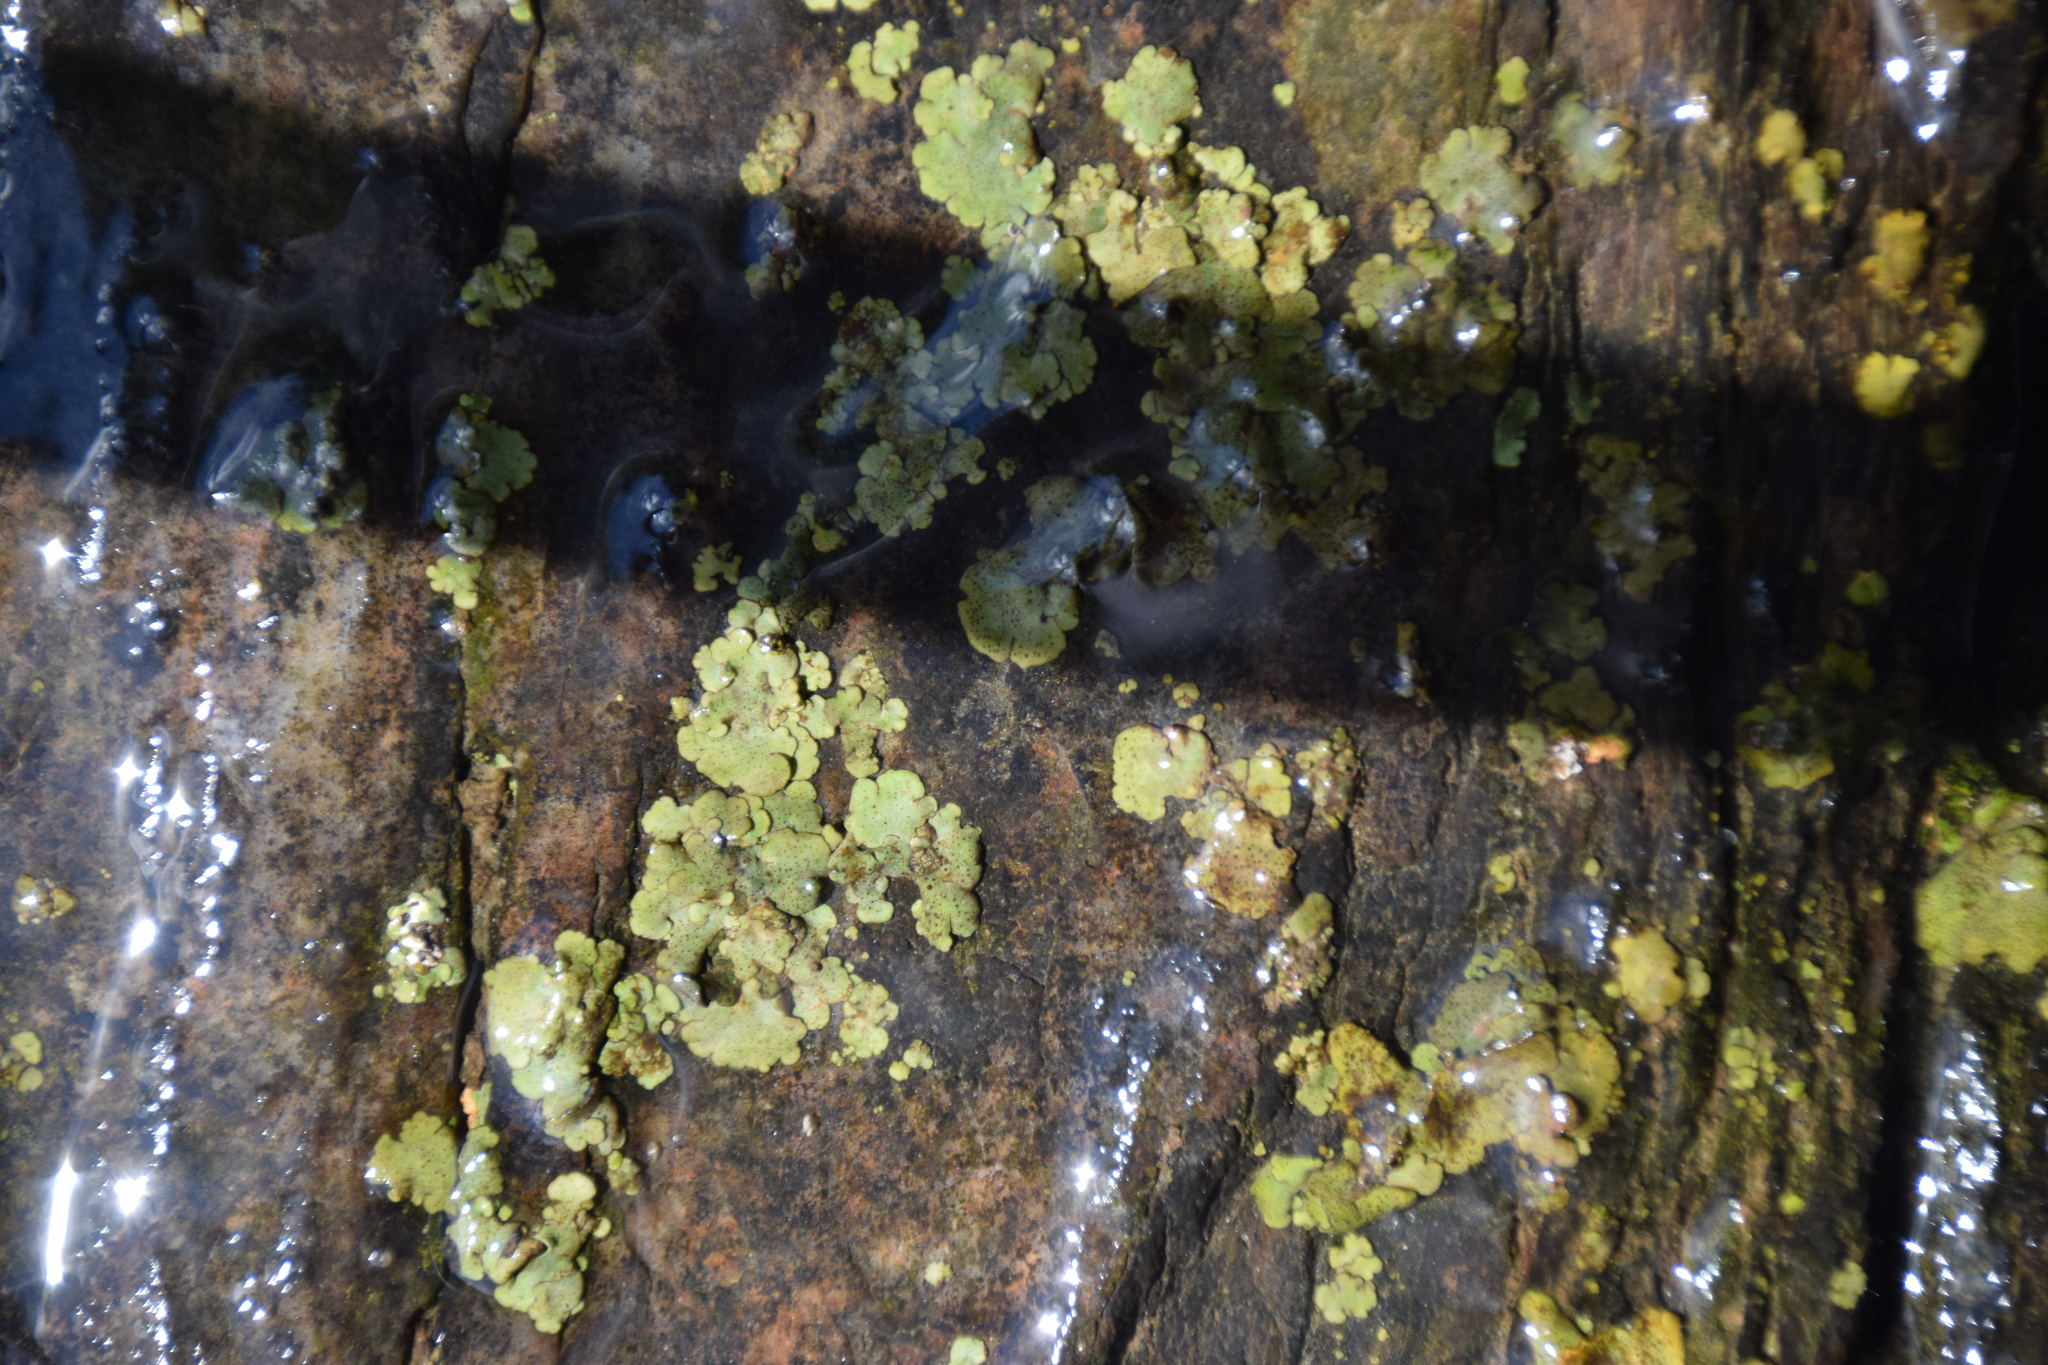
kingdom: Fungi
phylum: Ascomycota
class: Eurotiomycetes
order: Verrucariales
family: Verrucariaceae
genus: Dermatocarpon
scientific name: Dermatocarpon luridum
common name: Brook stippleback lichen
